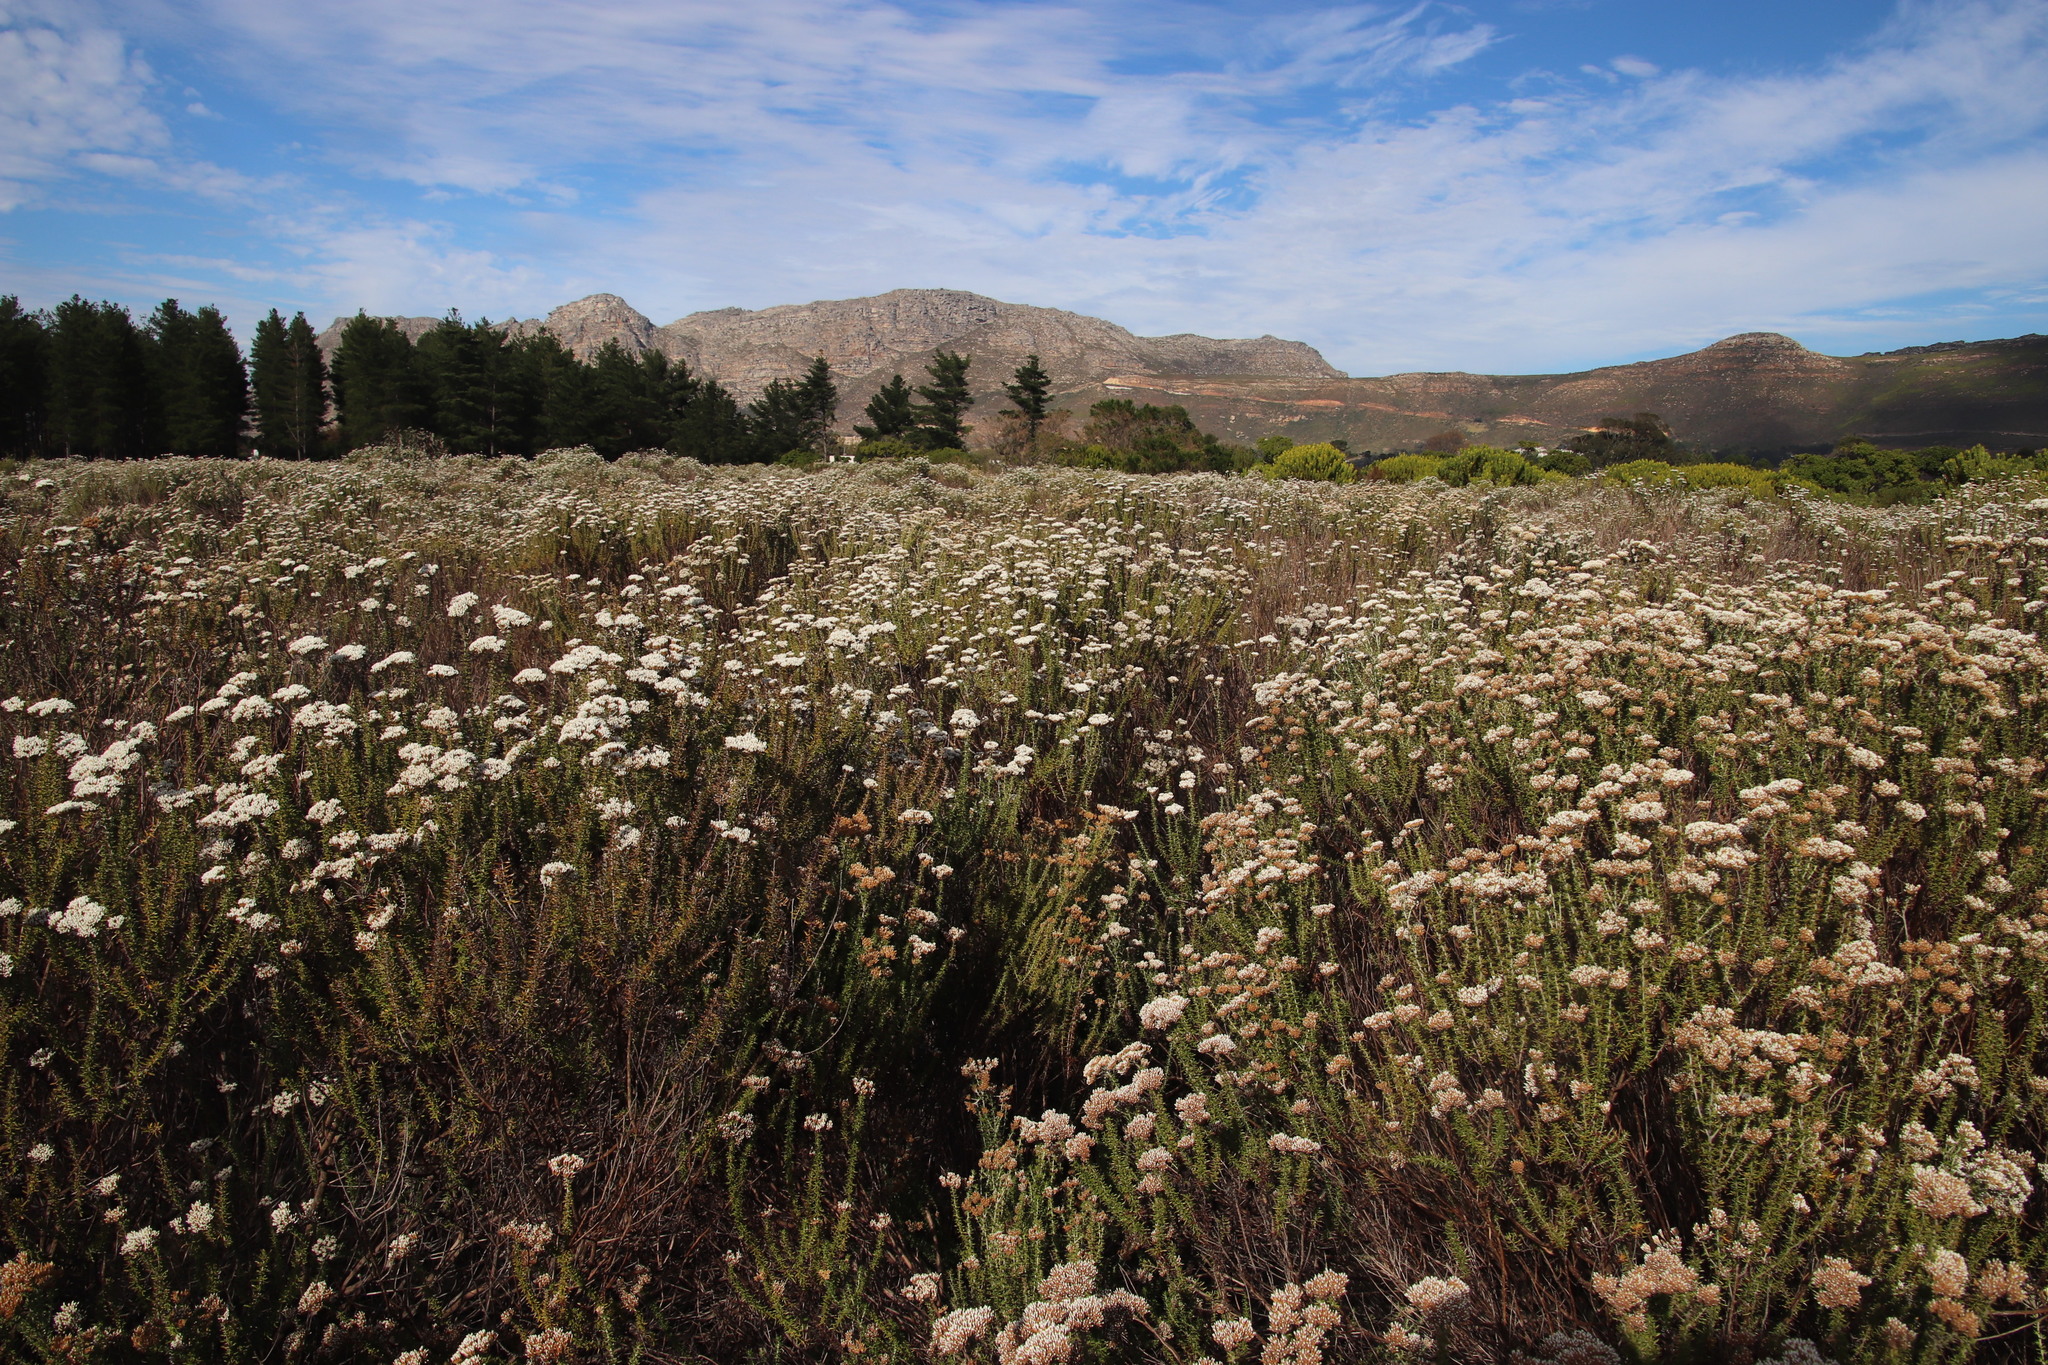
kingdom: Plantae
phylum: Tracheophyta
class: Magnoliopsida
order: Asterales
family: Asteraceae
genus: Metalasia
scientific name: Metalasia densa
